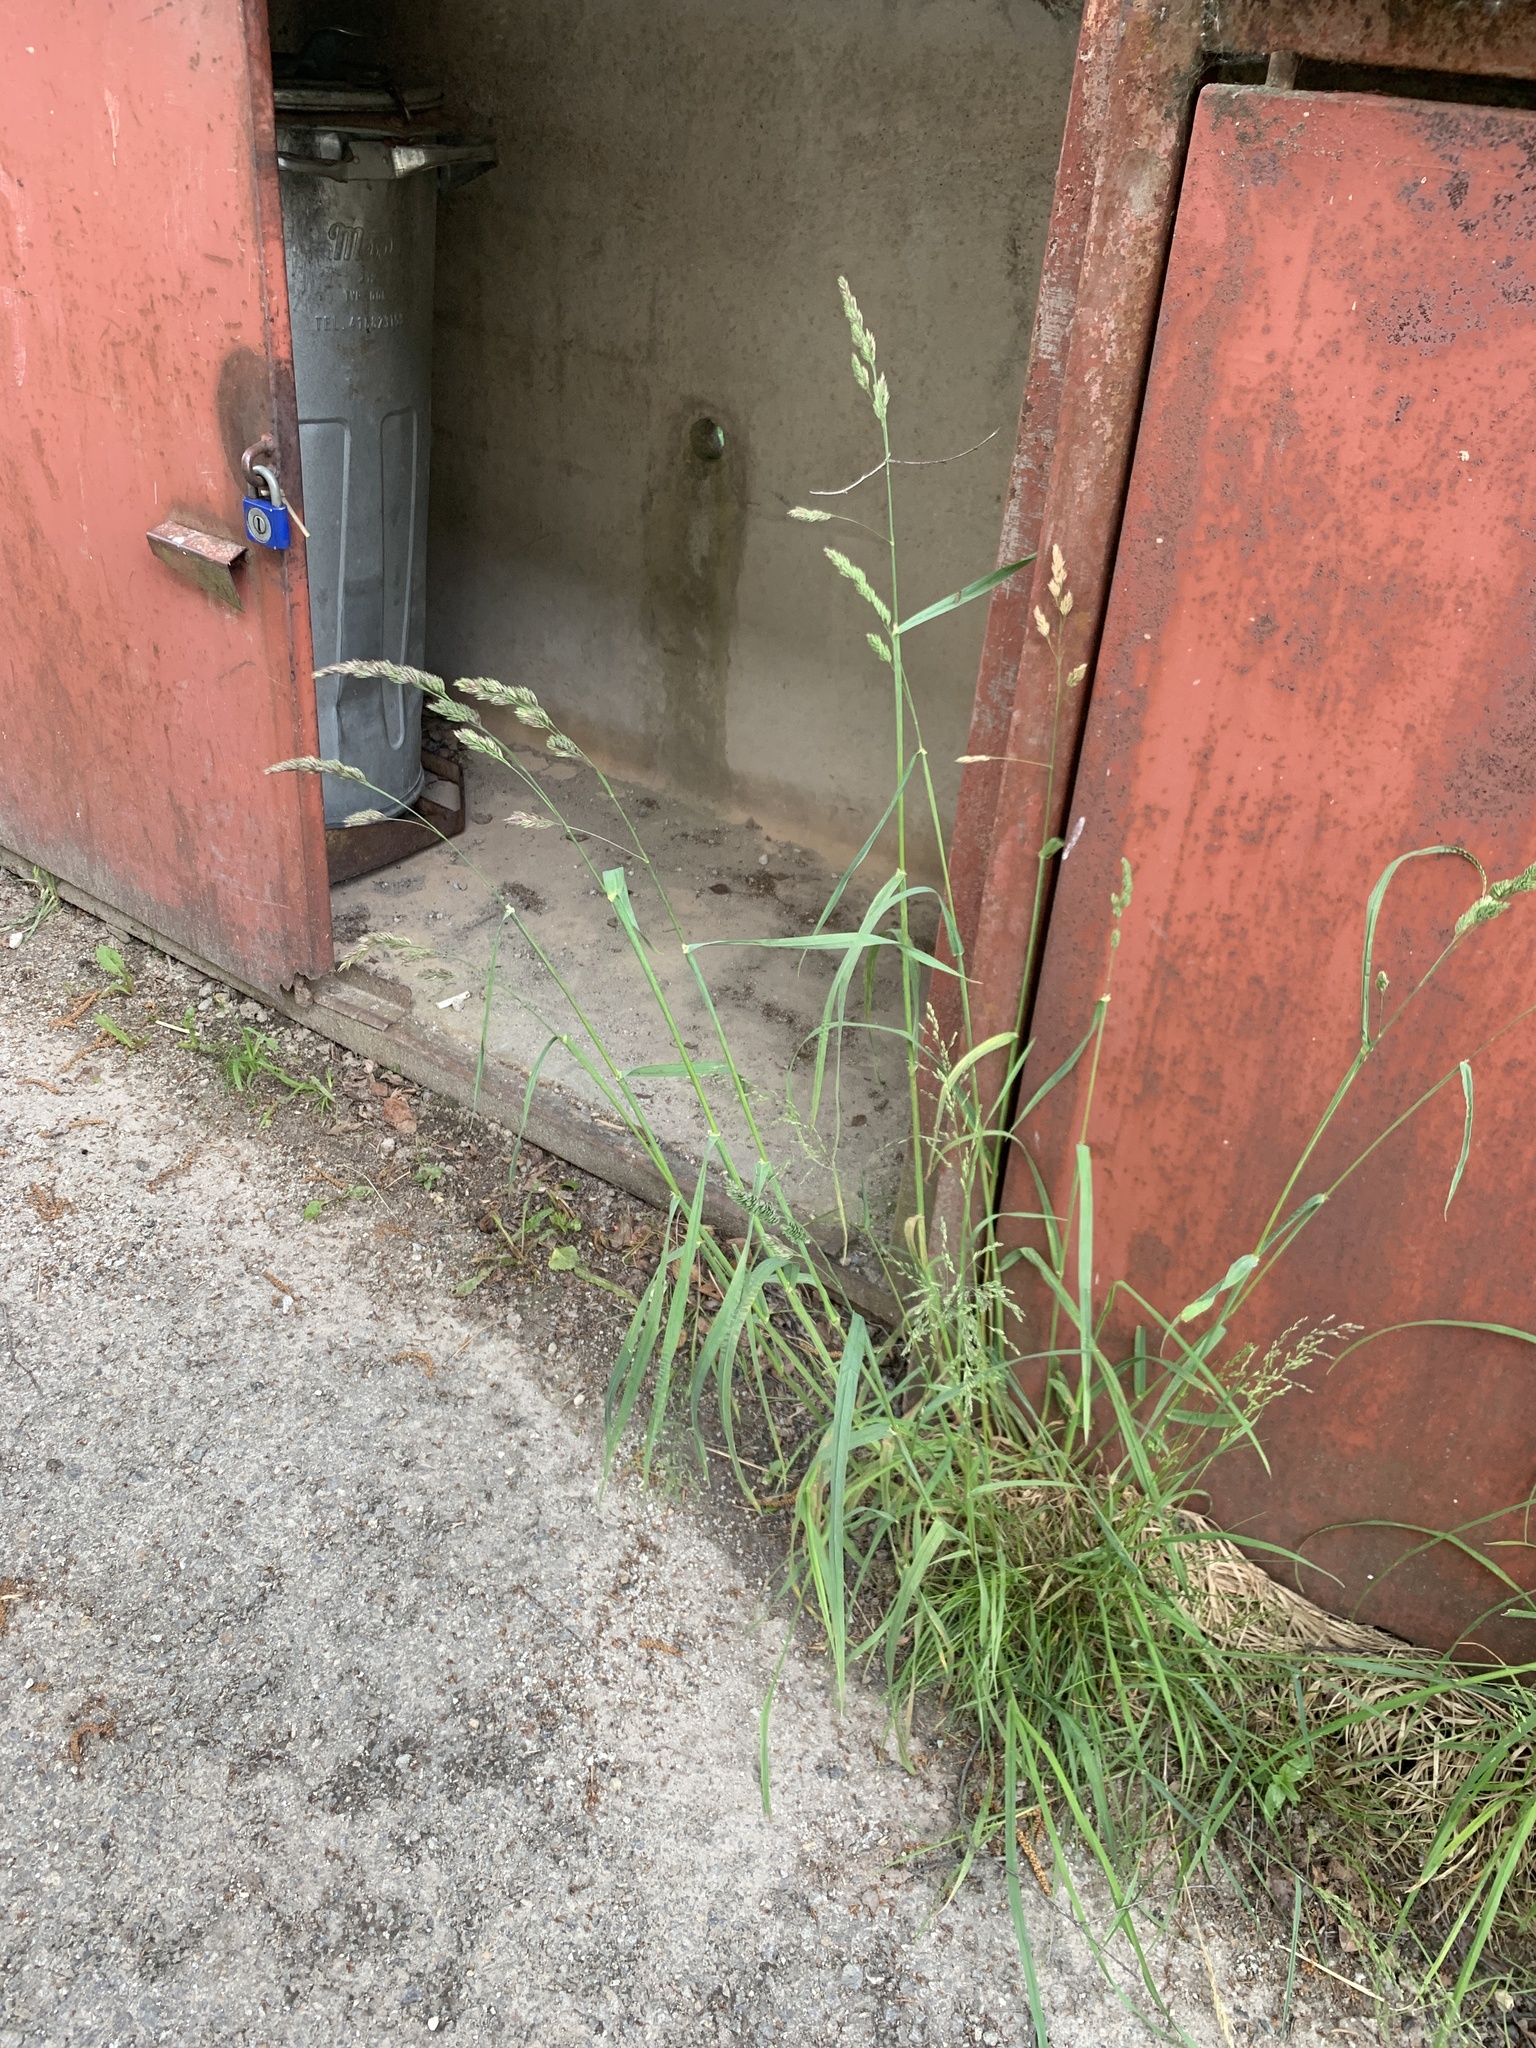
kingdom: Plantae
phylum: Tracheophyta
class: Liliopsida
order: Poales
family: Poaceae
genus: Dactylis
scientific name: Dactylis glomerata
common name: Orchardgrass
